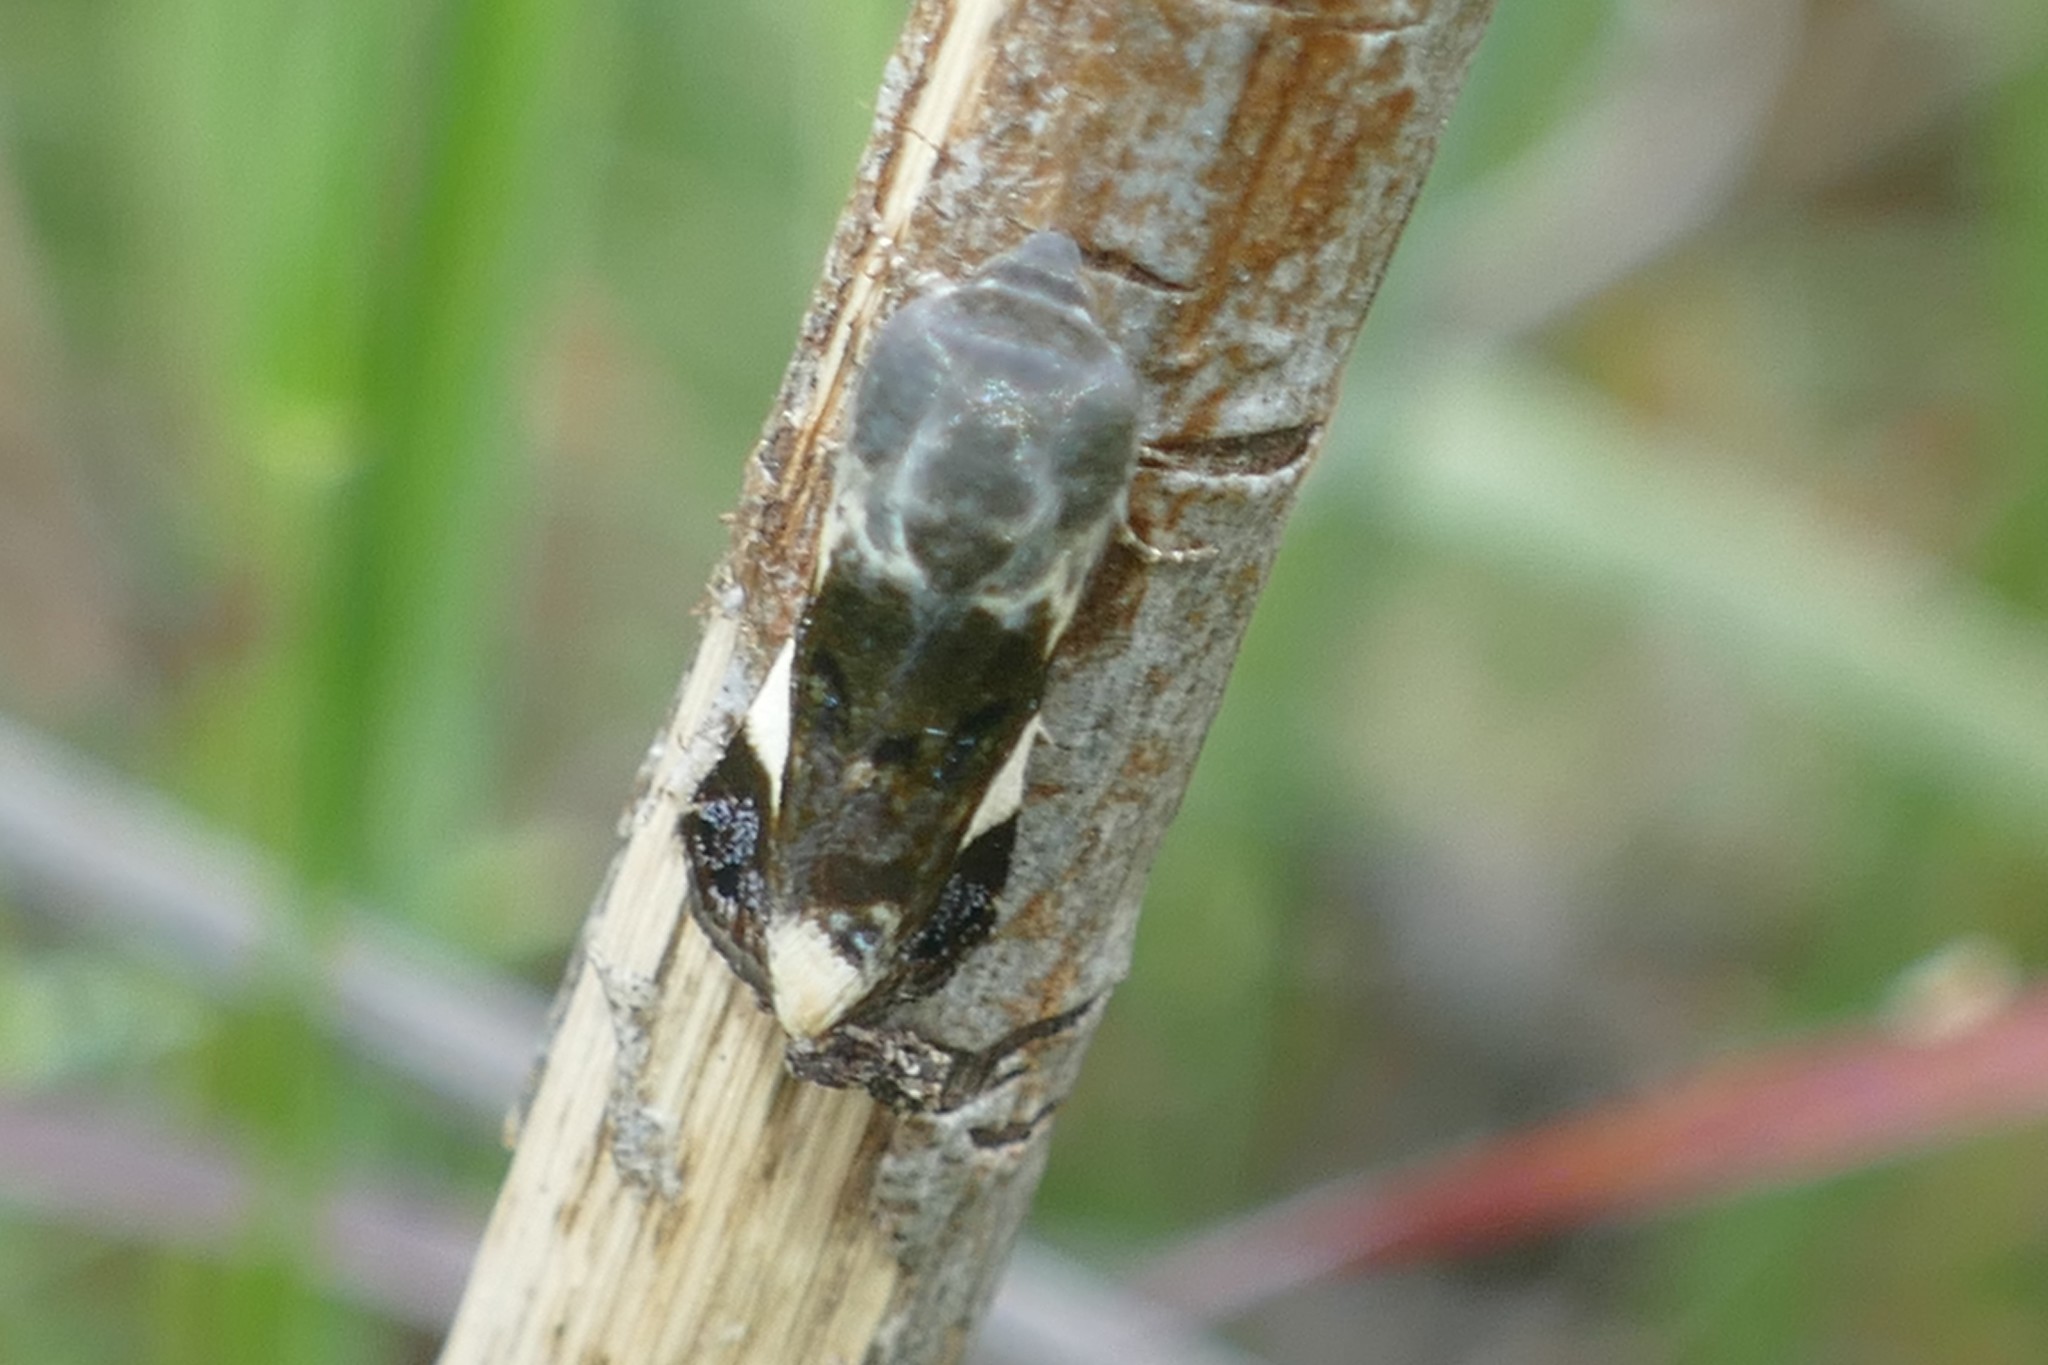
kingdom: Animalia
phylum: Arthropoda
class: Insecta
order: Lepidoptera
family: Noctuidae
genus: Acontia
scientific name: Acontia lucida
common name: Pale shoulder
